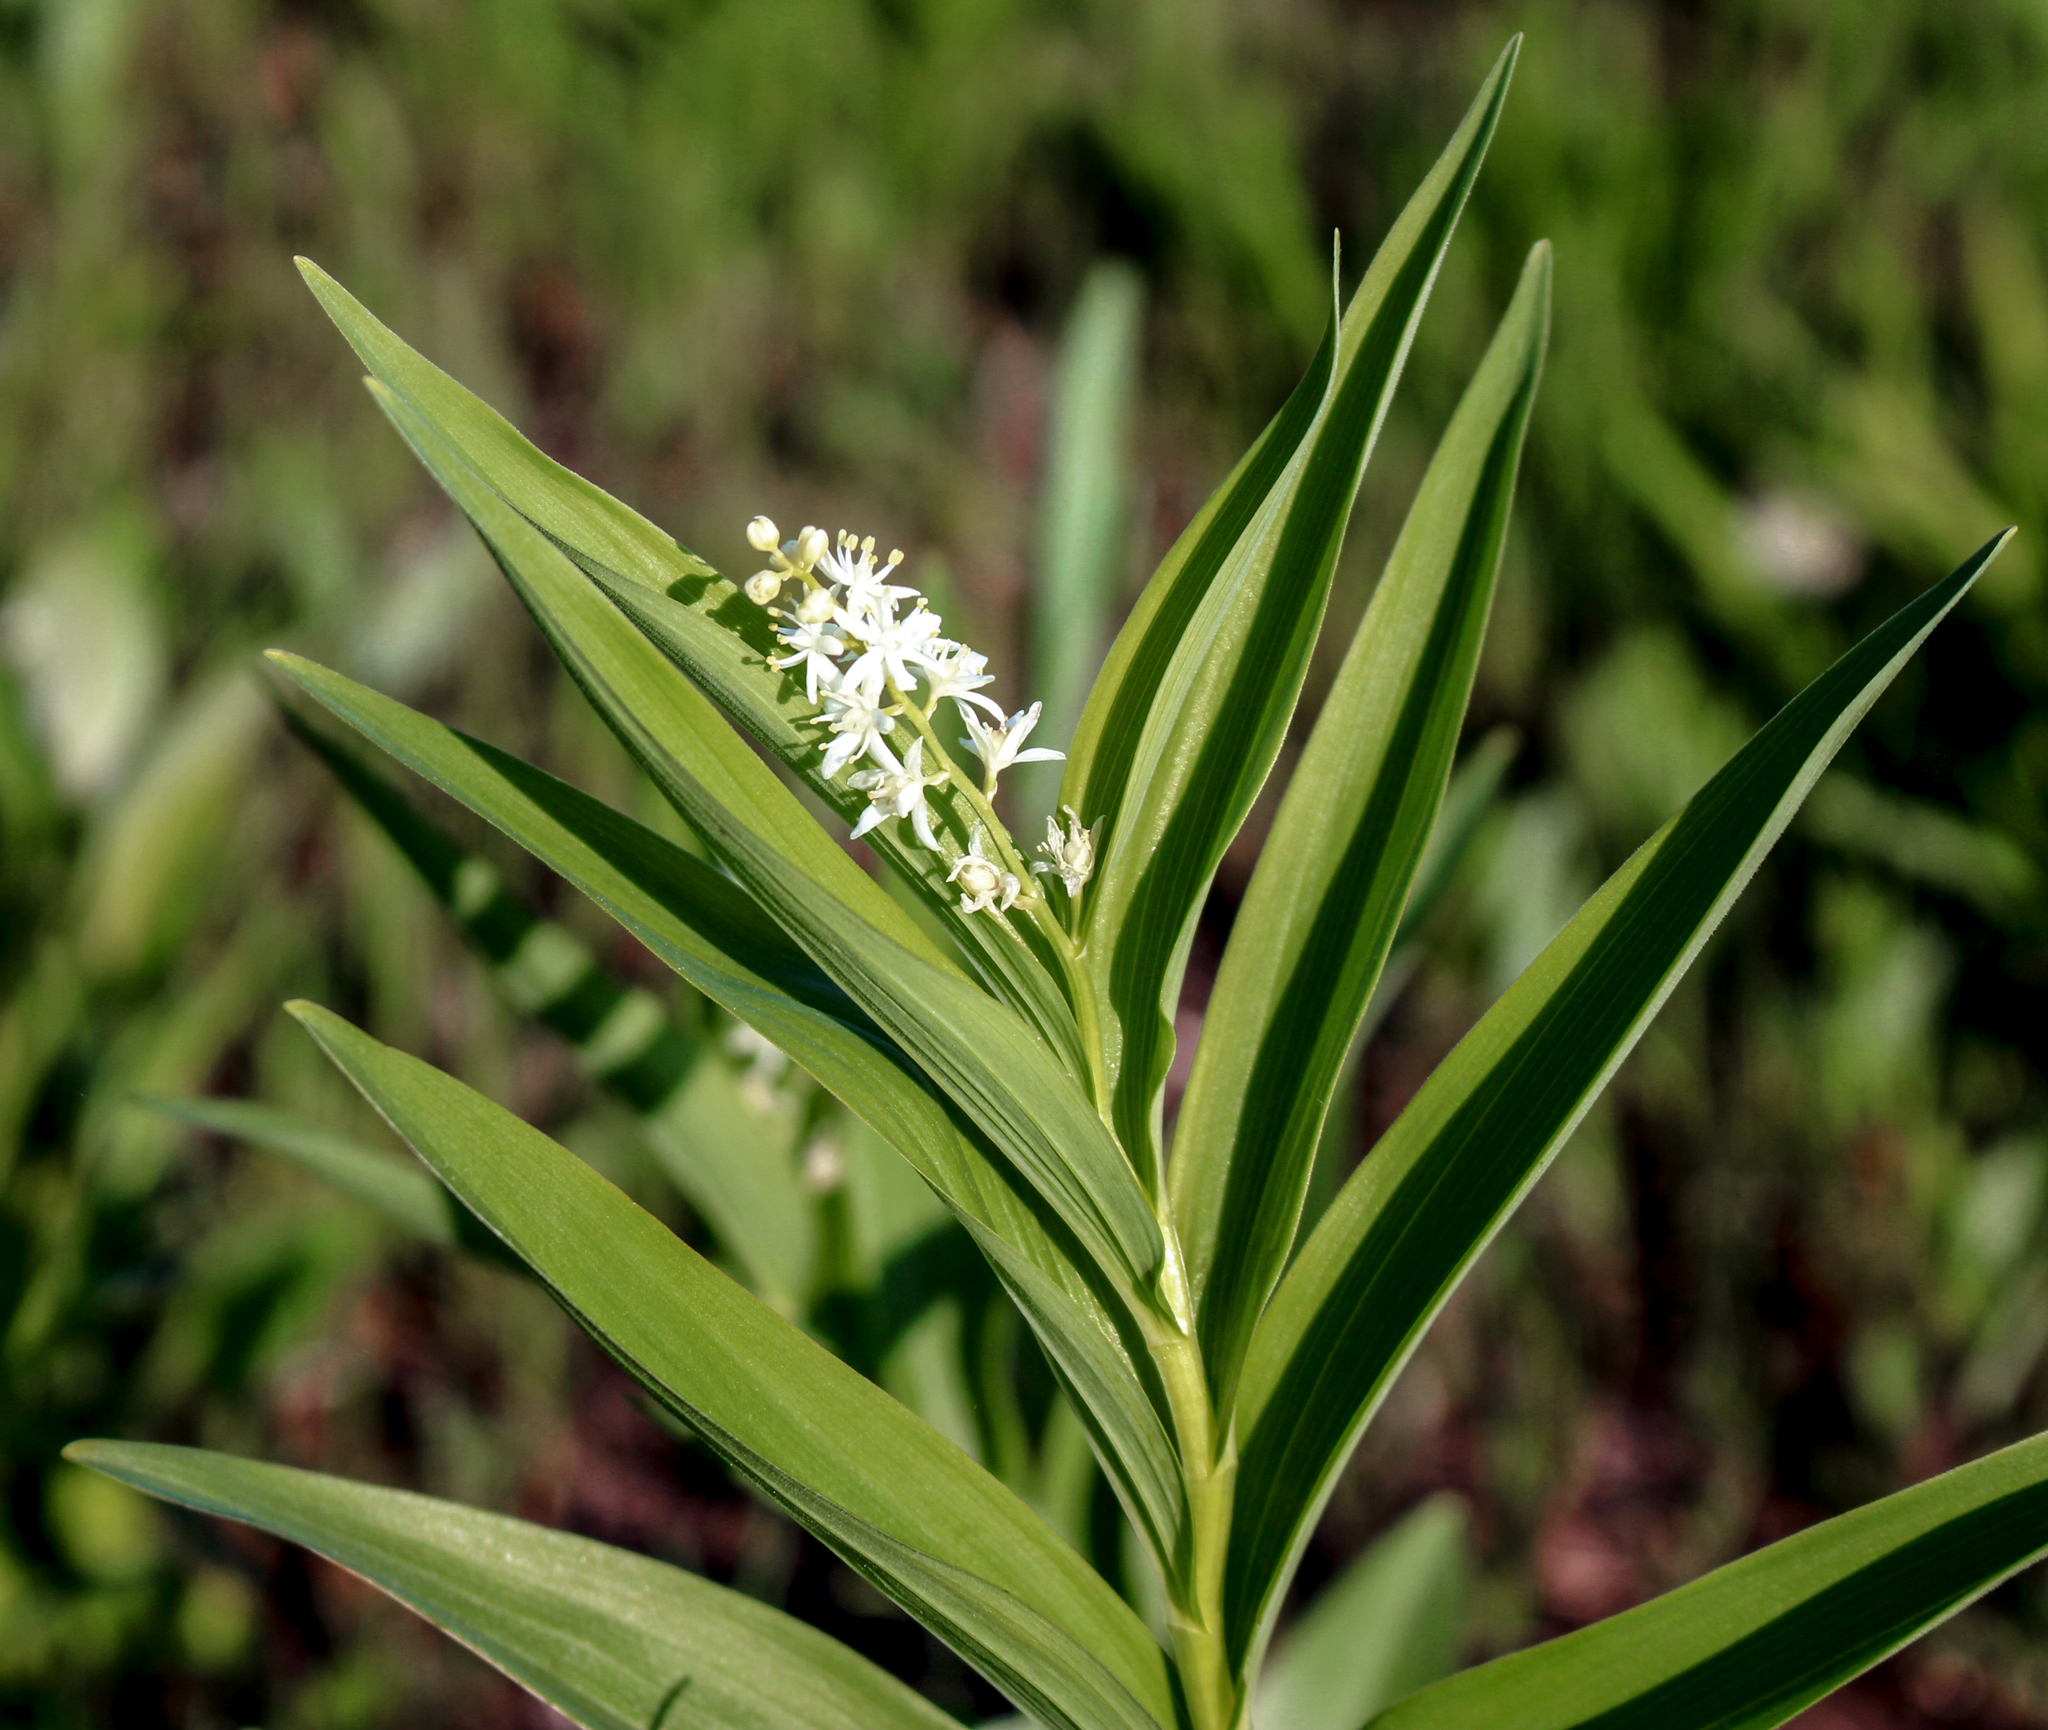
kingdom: Plantae
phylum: Tracheophyta
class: Liliopsida
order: Asparagales
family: Asparagaceae
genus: Maianthemum
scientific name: Maianthemum stellatum
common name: Little false solomon's seal
